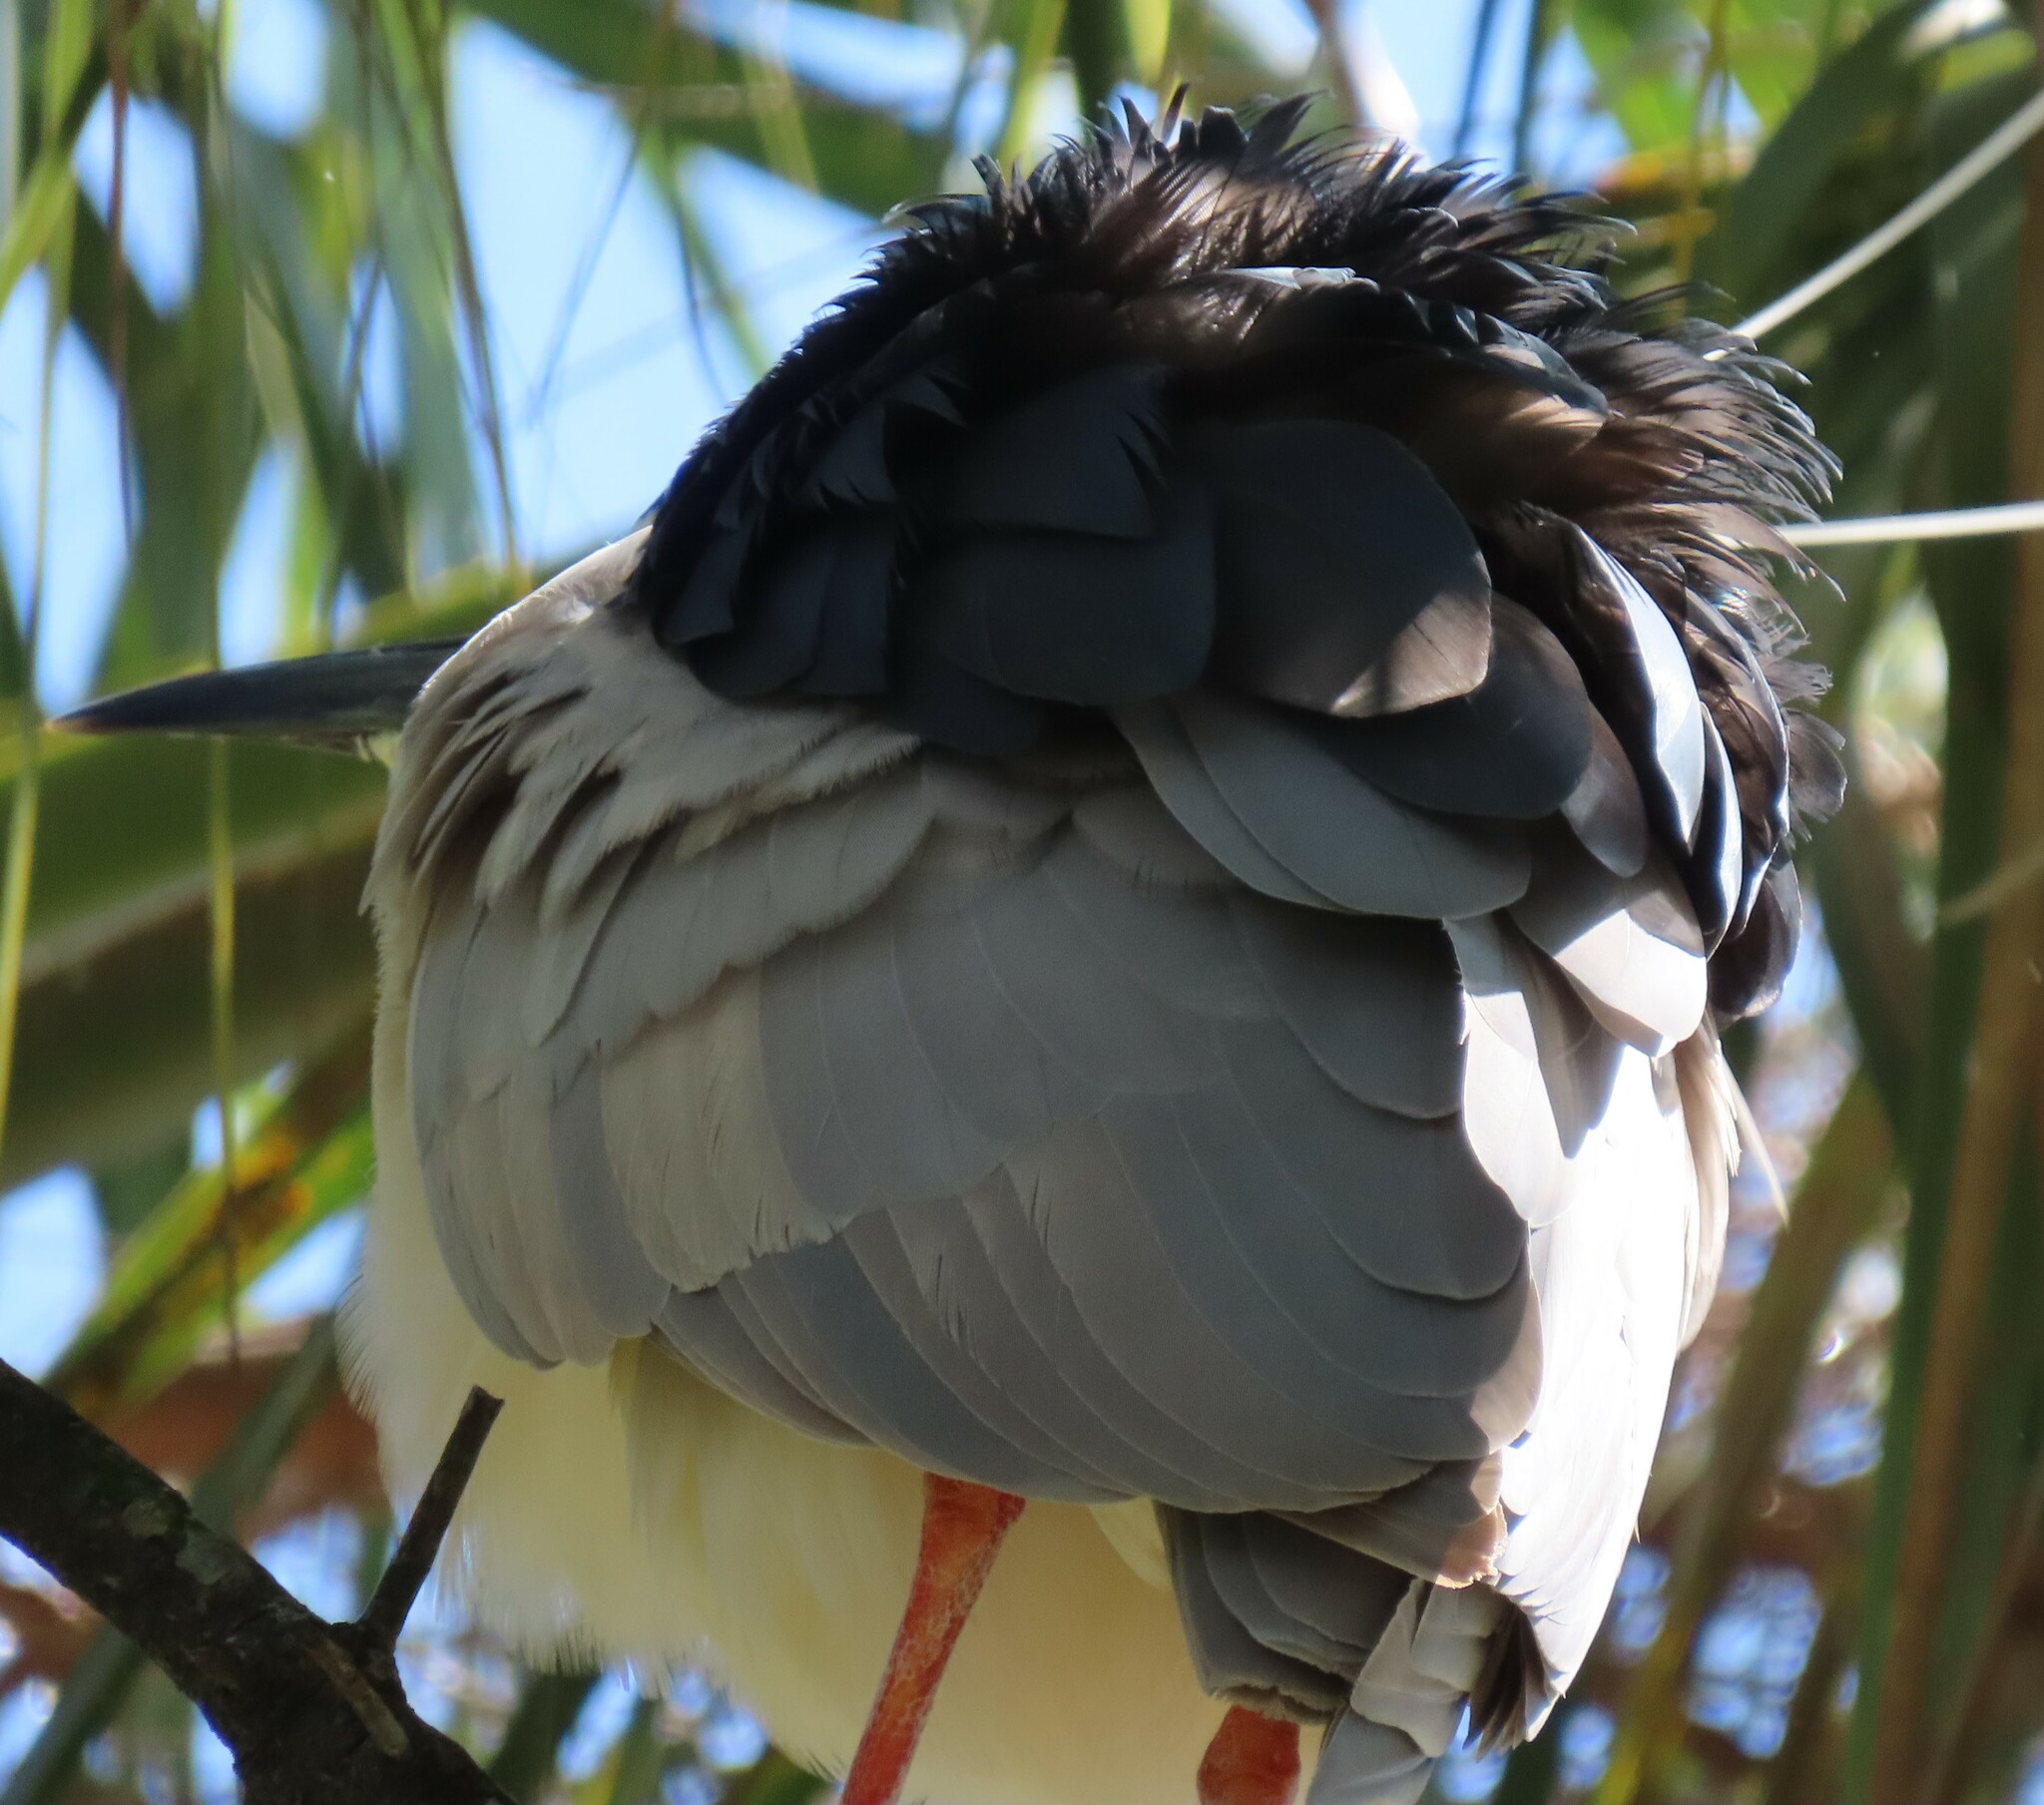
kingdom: Animalia
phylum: Chordata
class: Aves
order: Pelecaniformes
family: Ardeidae
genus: Nycticorax
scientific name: Nycticorax nycticorax
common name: Black-crowned night heron
